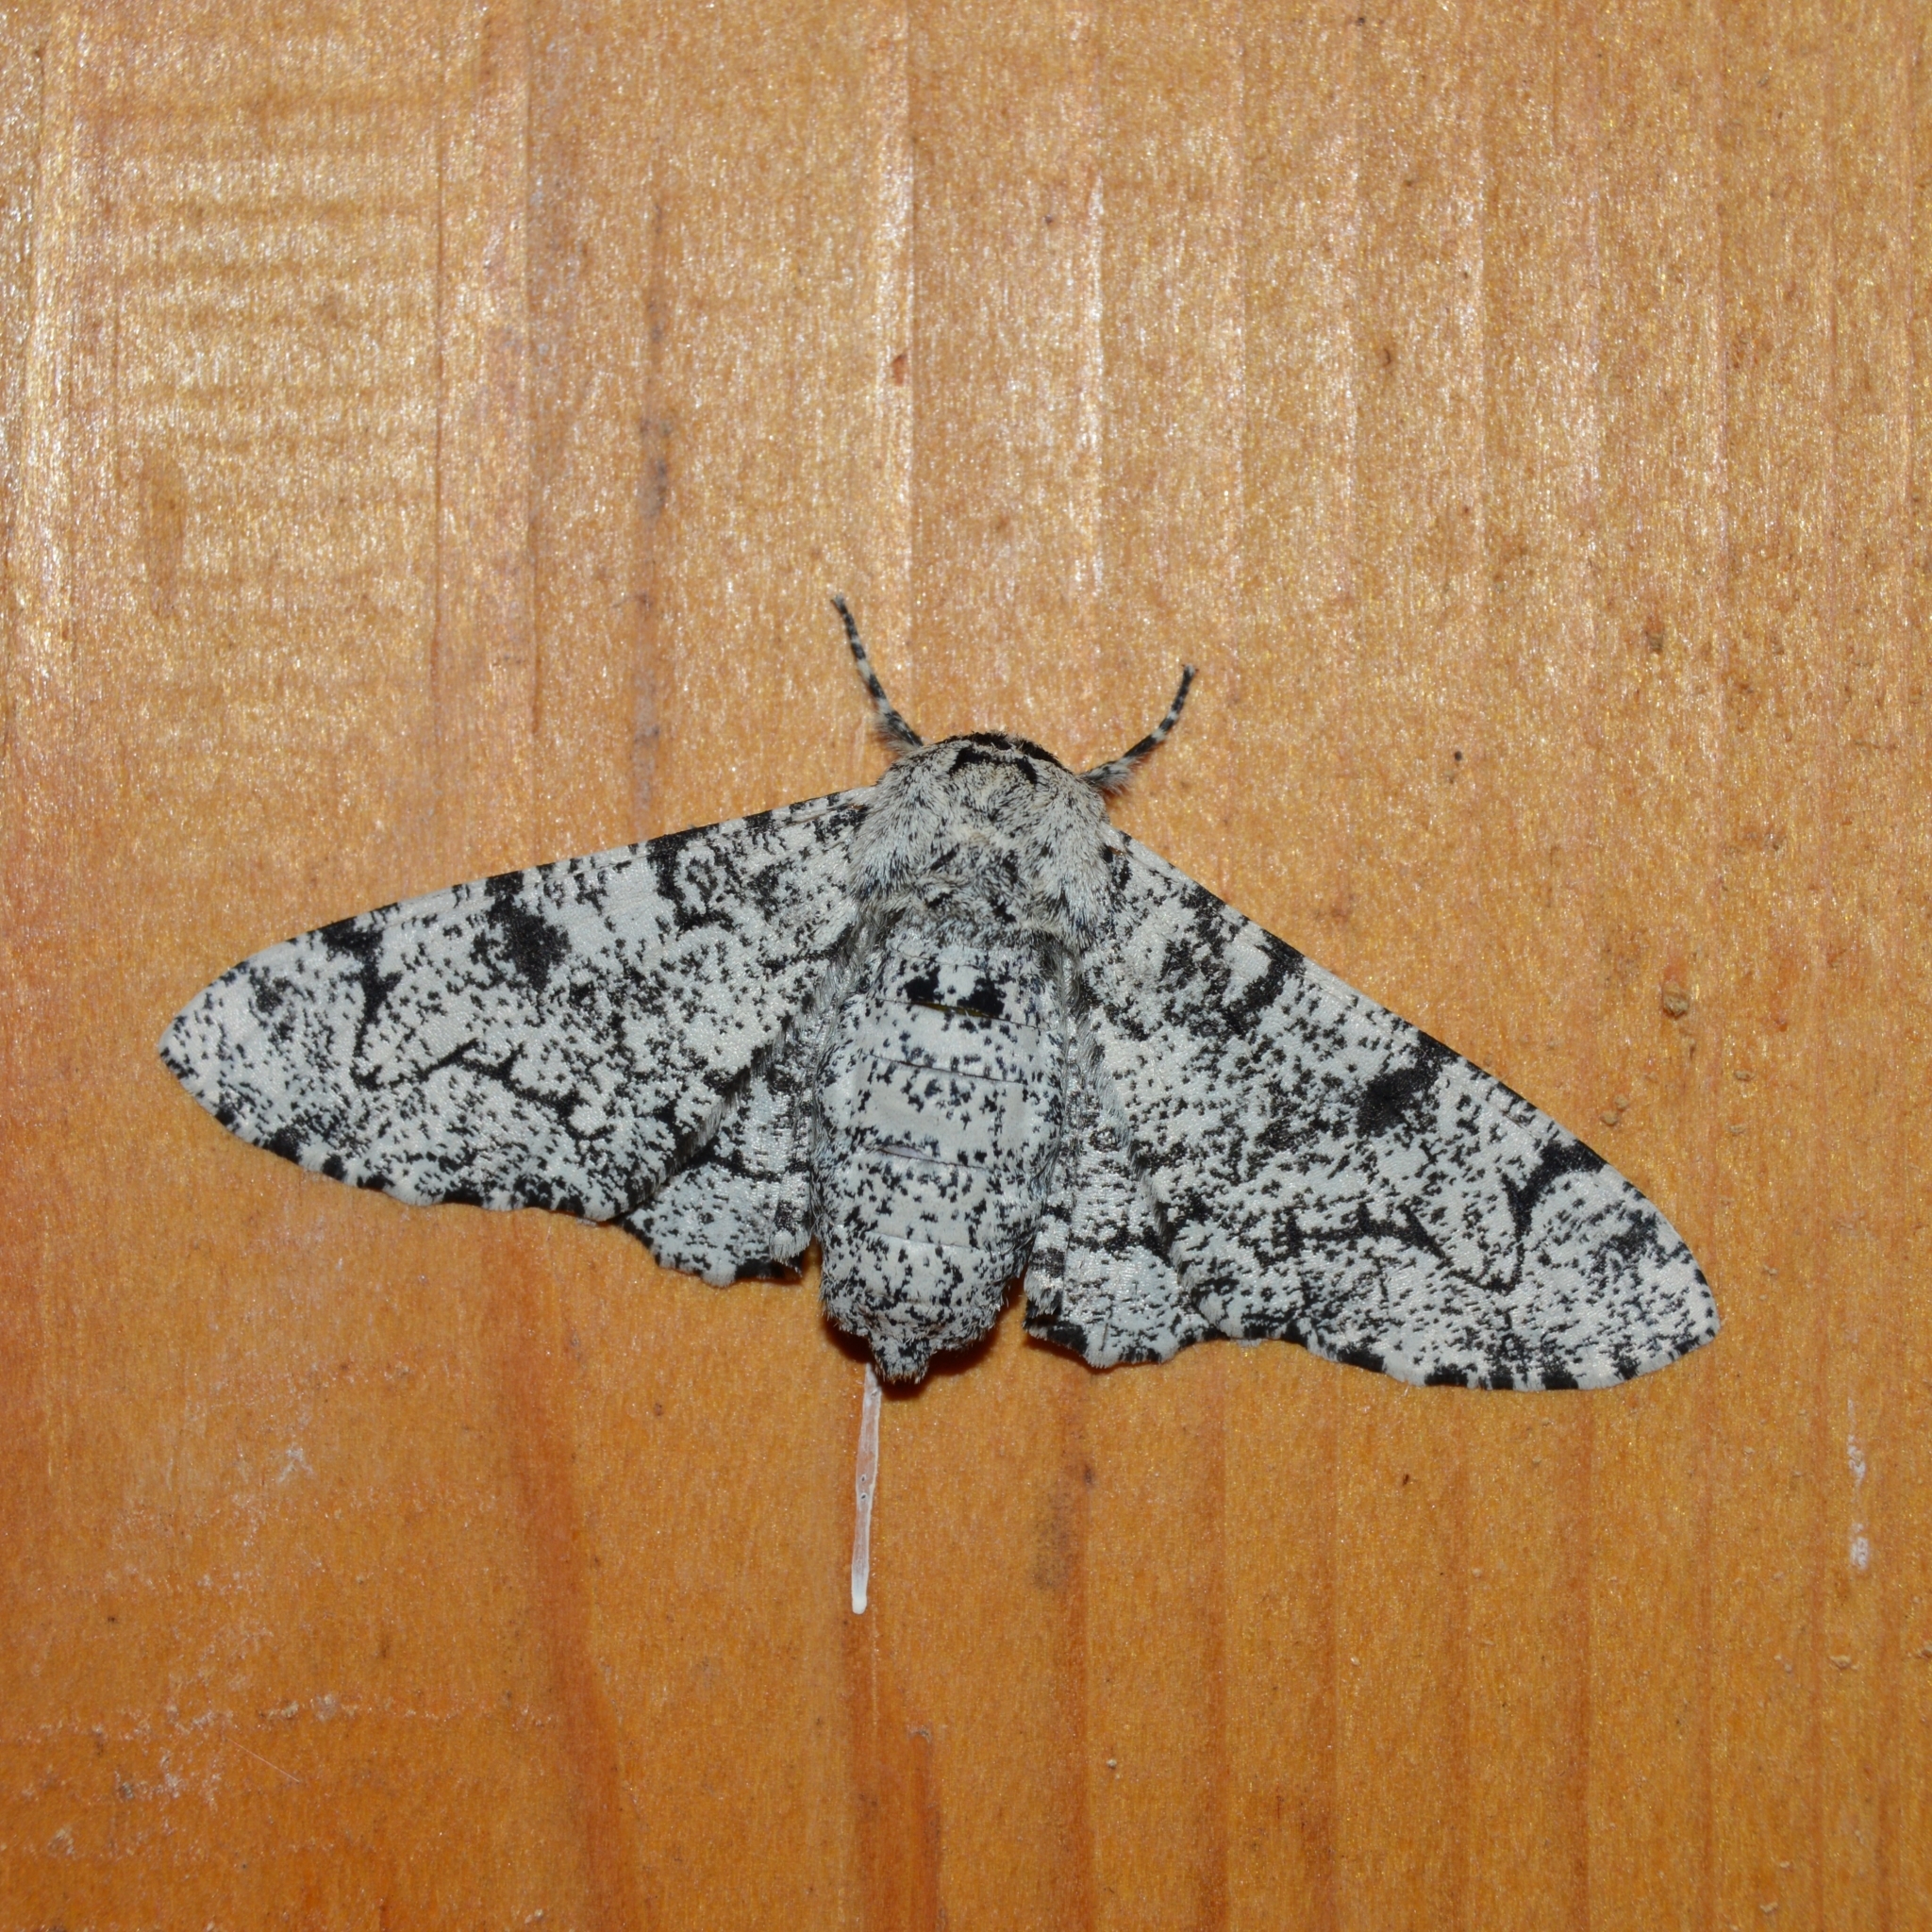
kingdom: Animalia
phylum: Arthropoda
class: Insecta
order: Lepidoptera
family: Geometridae
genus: Biston
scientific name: Biston betularia
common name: Peppered moth
